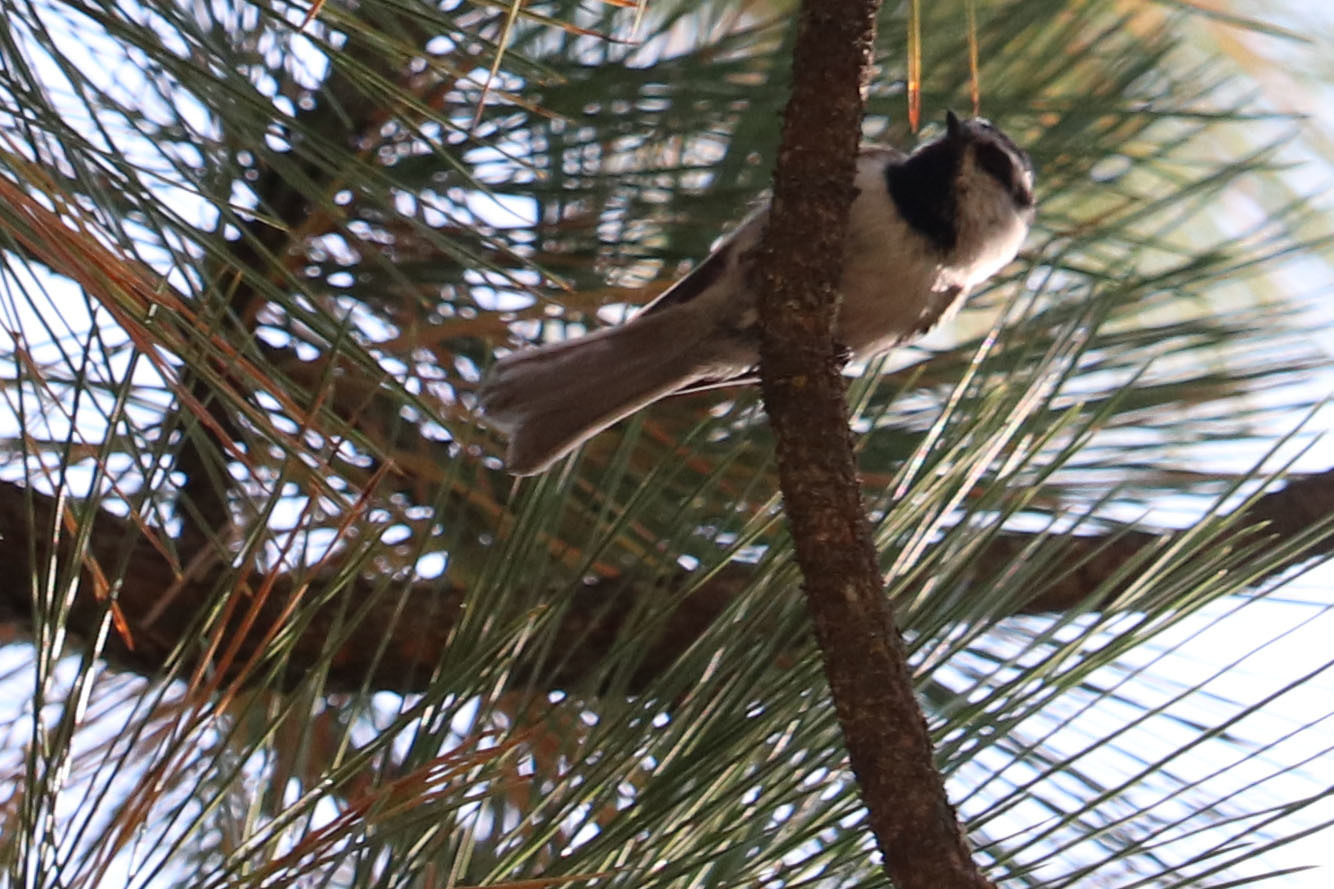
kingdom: Animalia
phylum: Chordata
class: Aves
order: Passeriformes
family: Paridae
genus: Poecile
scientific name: Poecile gambeli
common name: Mountain chickadee
